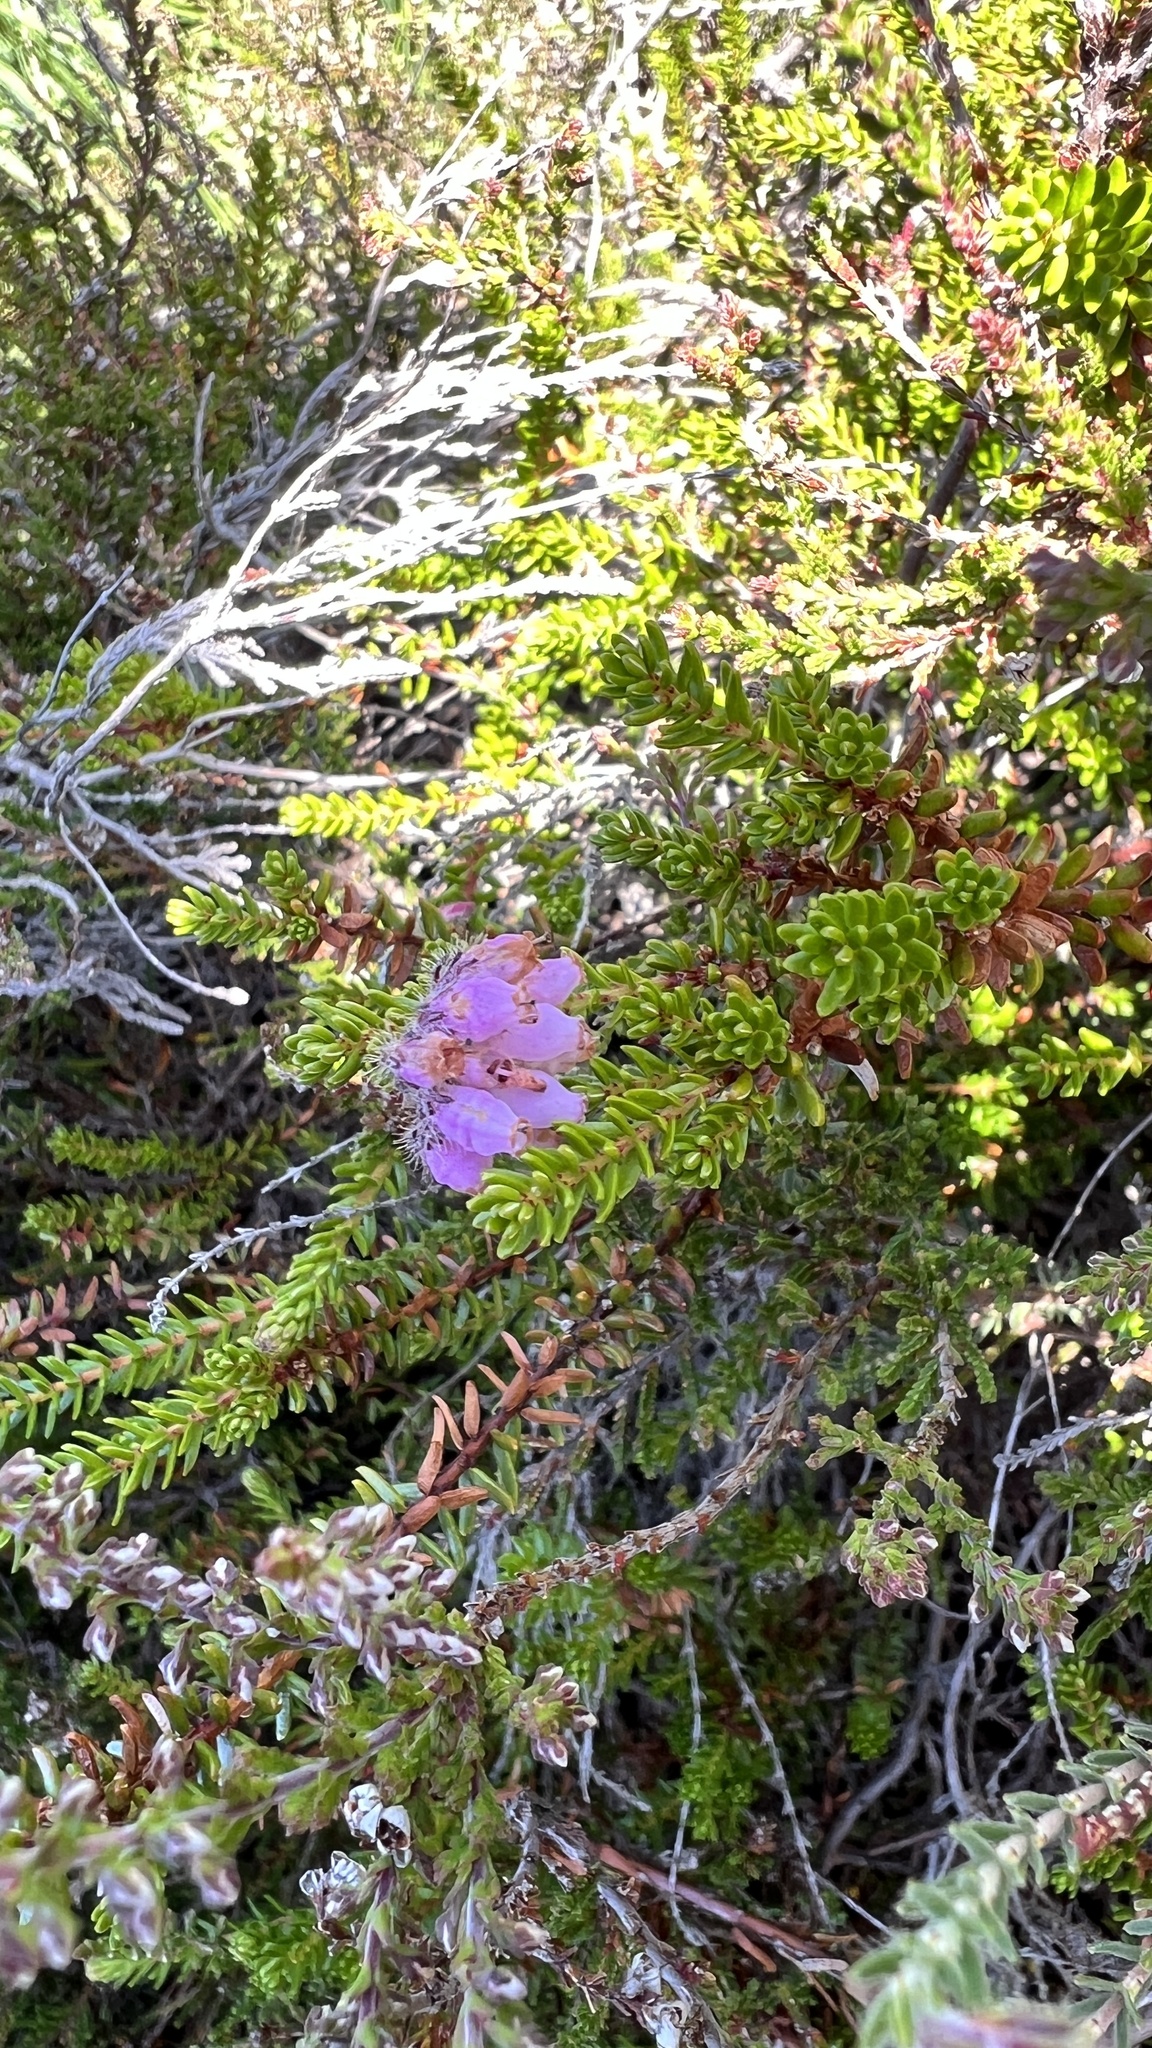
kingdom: Plantae
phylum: Tracheophyta
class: Magnoliopsida
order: Ericales
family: Ericaceae
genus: Erica
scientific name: Erica tetralix
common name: Cross-leaved heath
